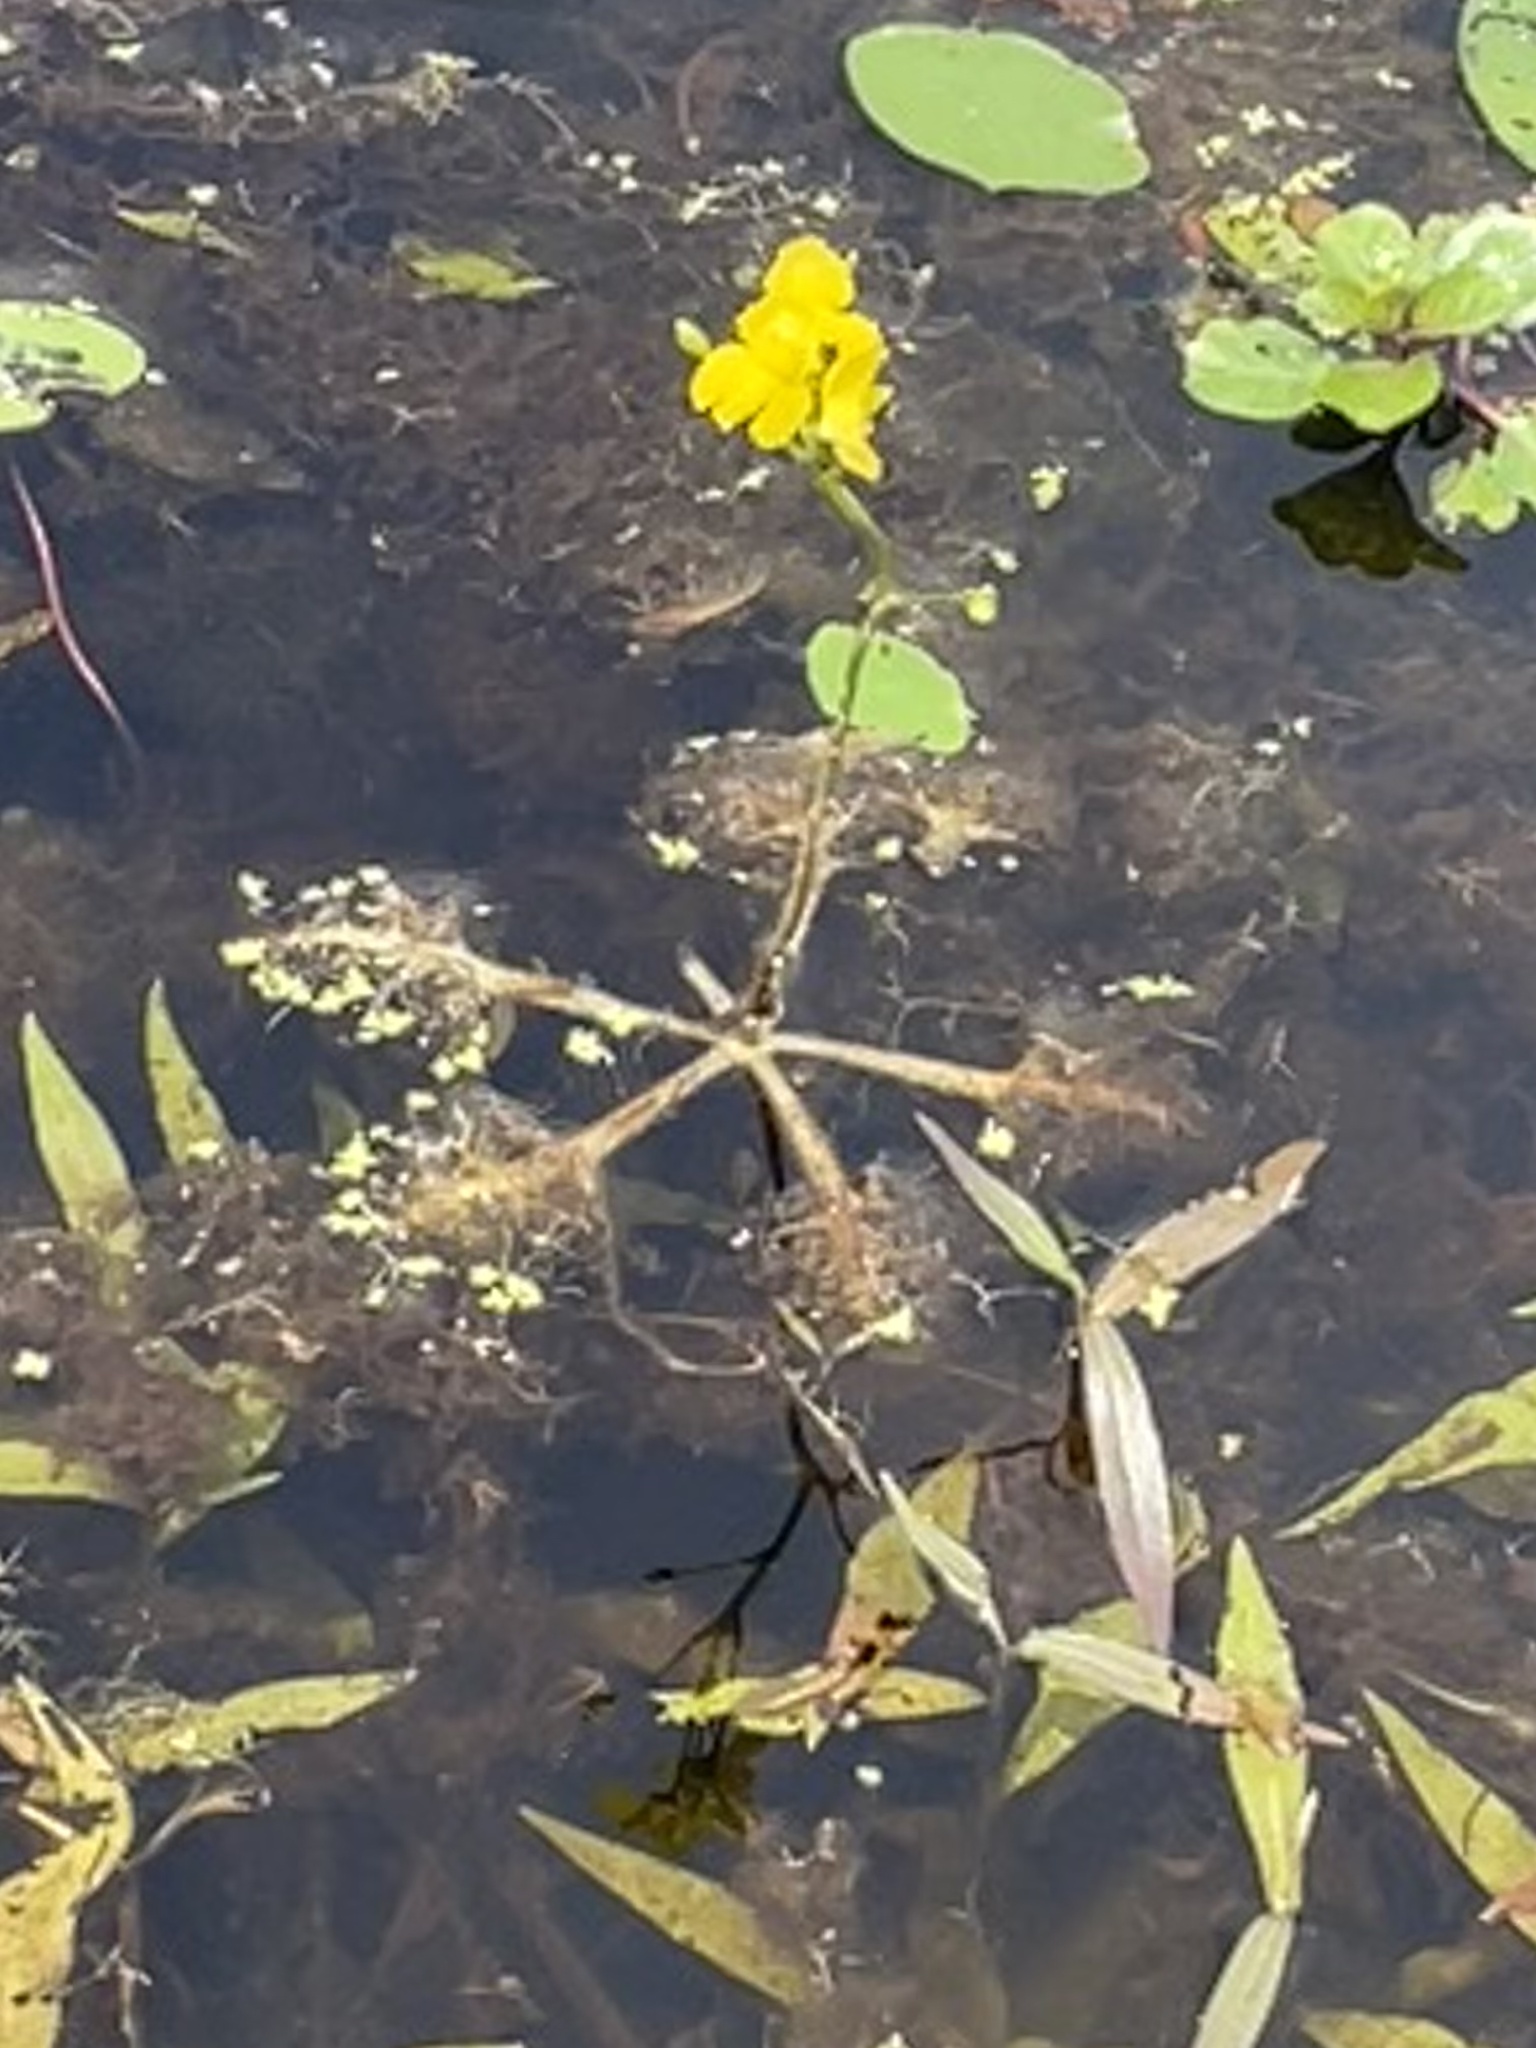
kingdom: Plantae
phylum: Tracheophyta
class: Magnoliopsida
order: Lamiales
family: Lentibulariaceae
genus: Utricularia
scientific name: Utricularia inflata
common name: Floating bladderwort
